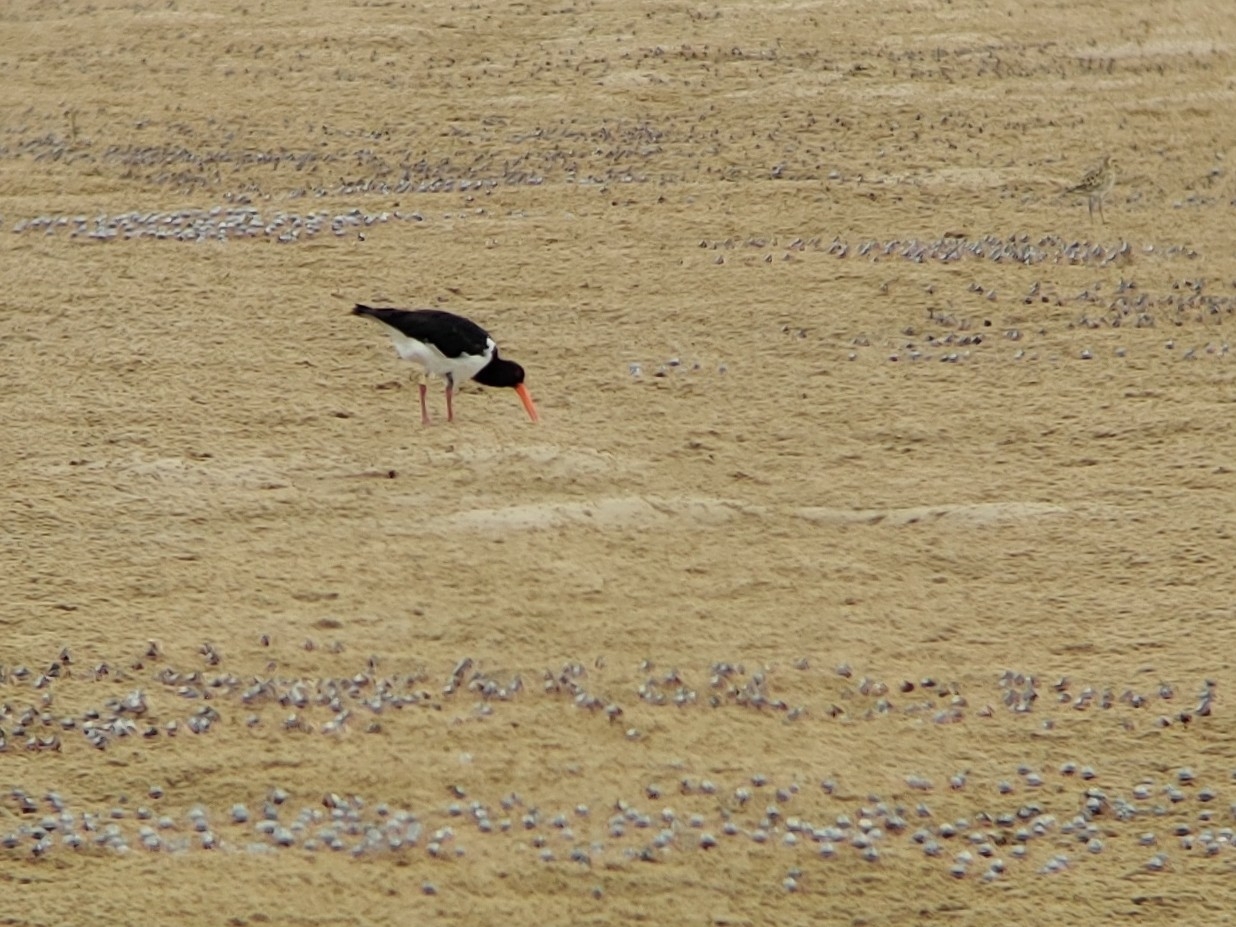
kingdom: Animalia
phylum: Chordata
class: Aves
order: Charadriiformes
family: Haematopodidae
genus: Haematopus
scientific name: Haematopus longirostris
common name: Pied oystercatcher
